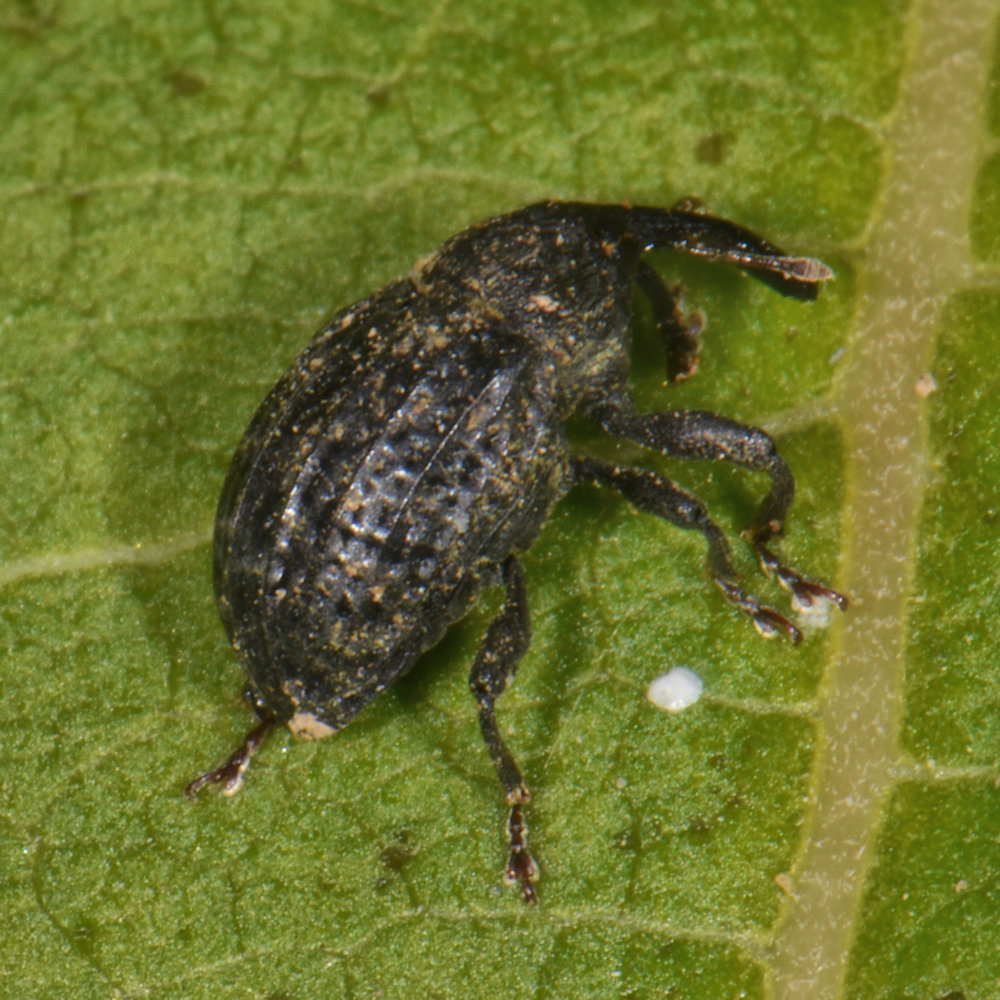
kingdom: Animalia
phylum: Arthropoda
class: Insecta
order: Coleoptera
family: Curculionidae
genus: Rhyssomatus
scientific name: Rhyssomatus lineaticollis
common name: Milkweed stem weevil
